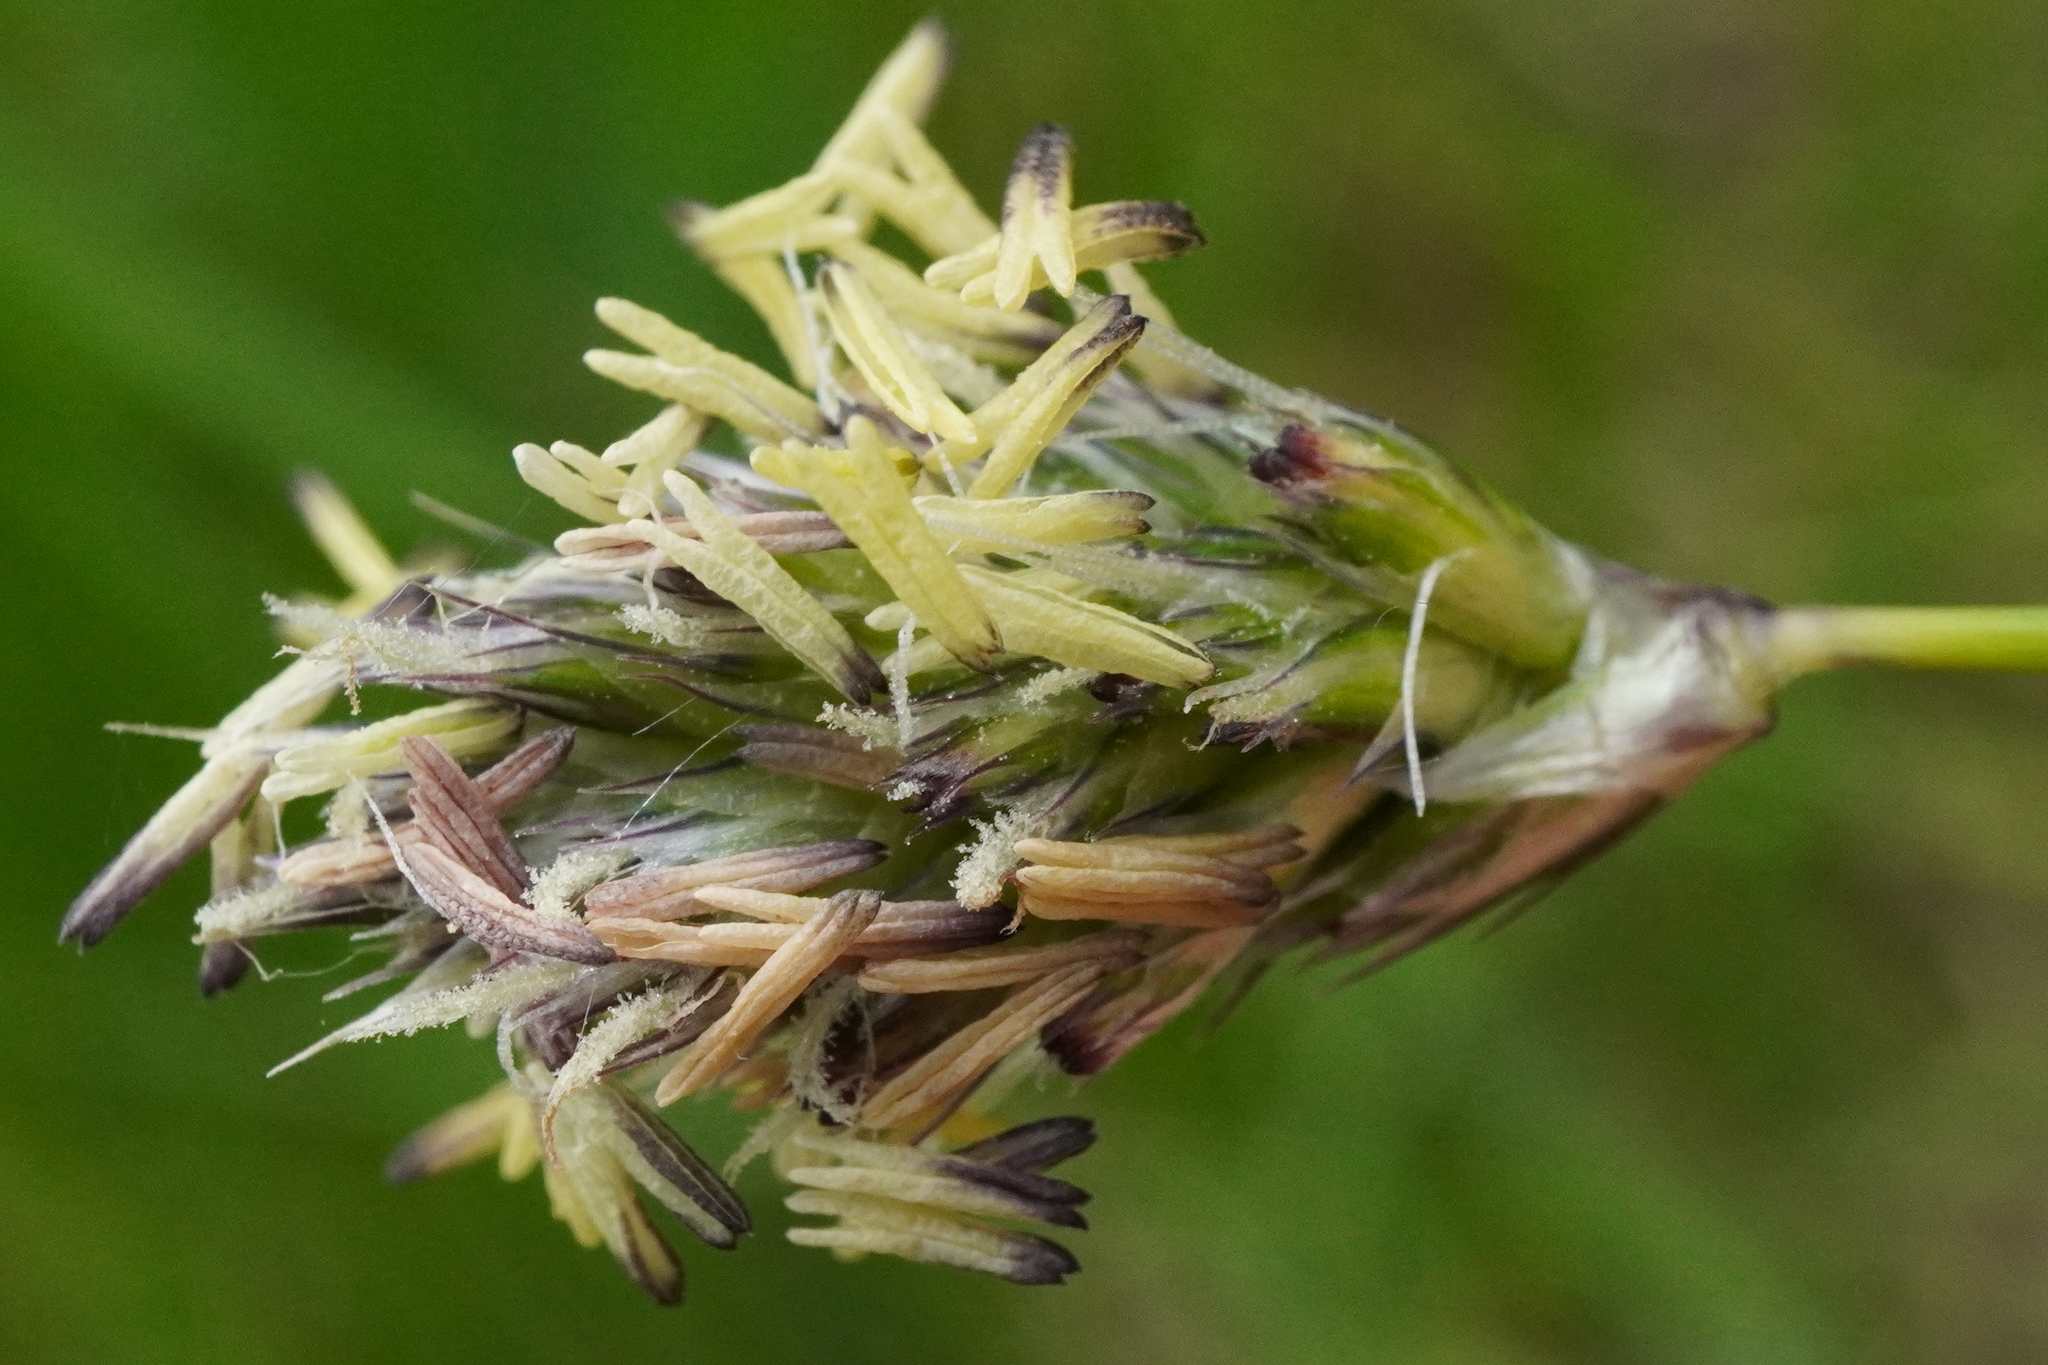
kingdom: Plantae
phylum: Tracheophyta
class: Liliopsida
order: Poales
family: Poaceae
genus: Sesleria
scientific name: Sesleria uliginosa
